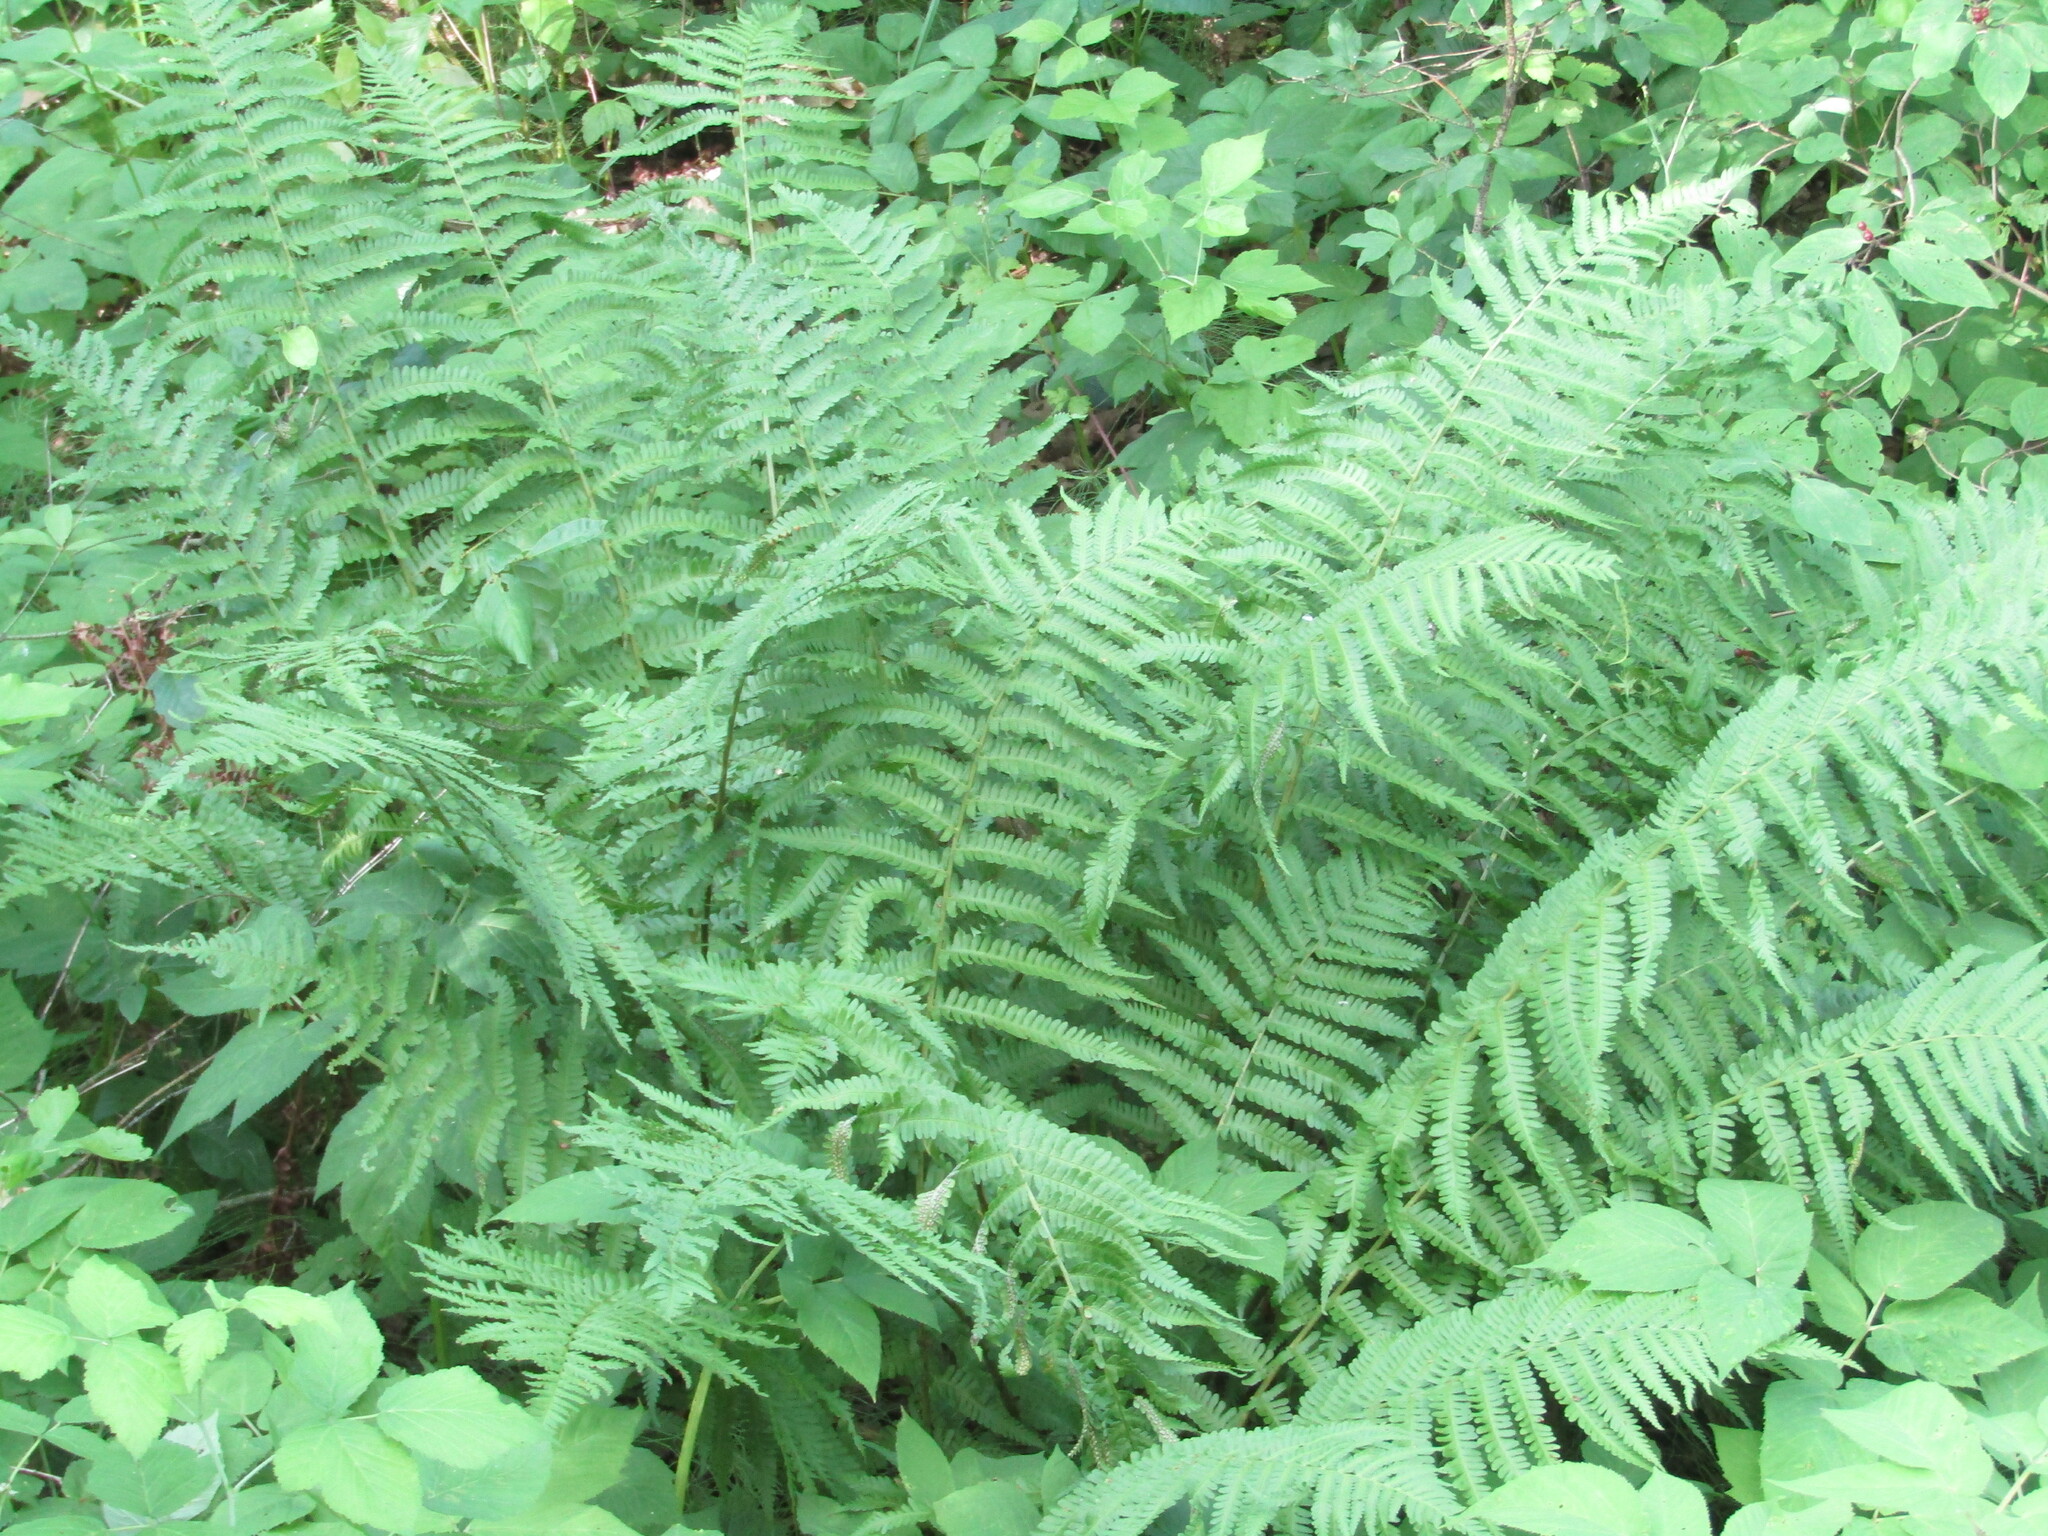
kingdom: Plantae
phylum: Tracheophyta
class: Polypodiopsida
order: Polypodiales
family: Dryopteridaceae
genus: Dryopteris
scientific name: Dryopteris filix-mas
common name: Male fern
